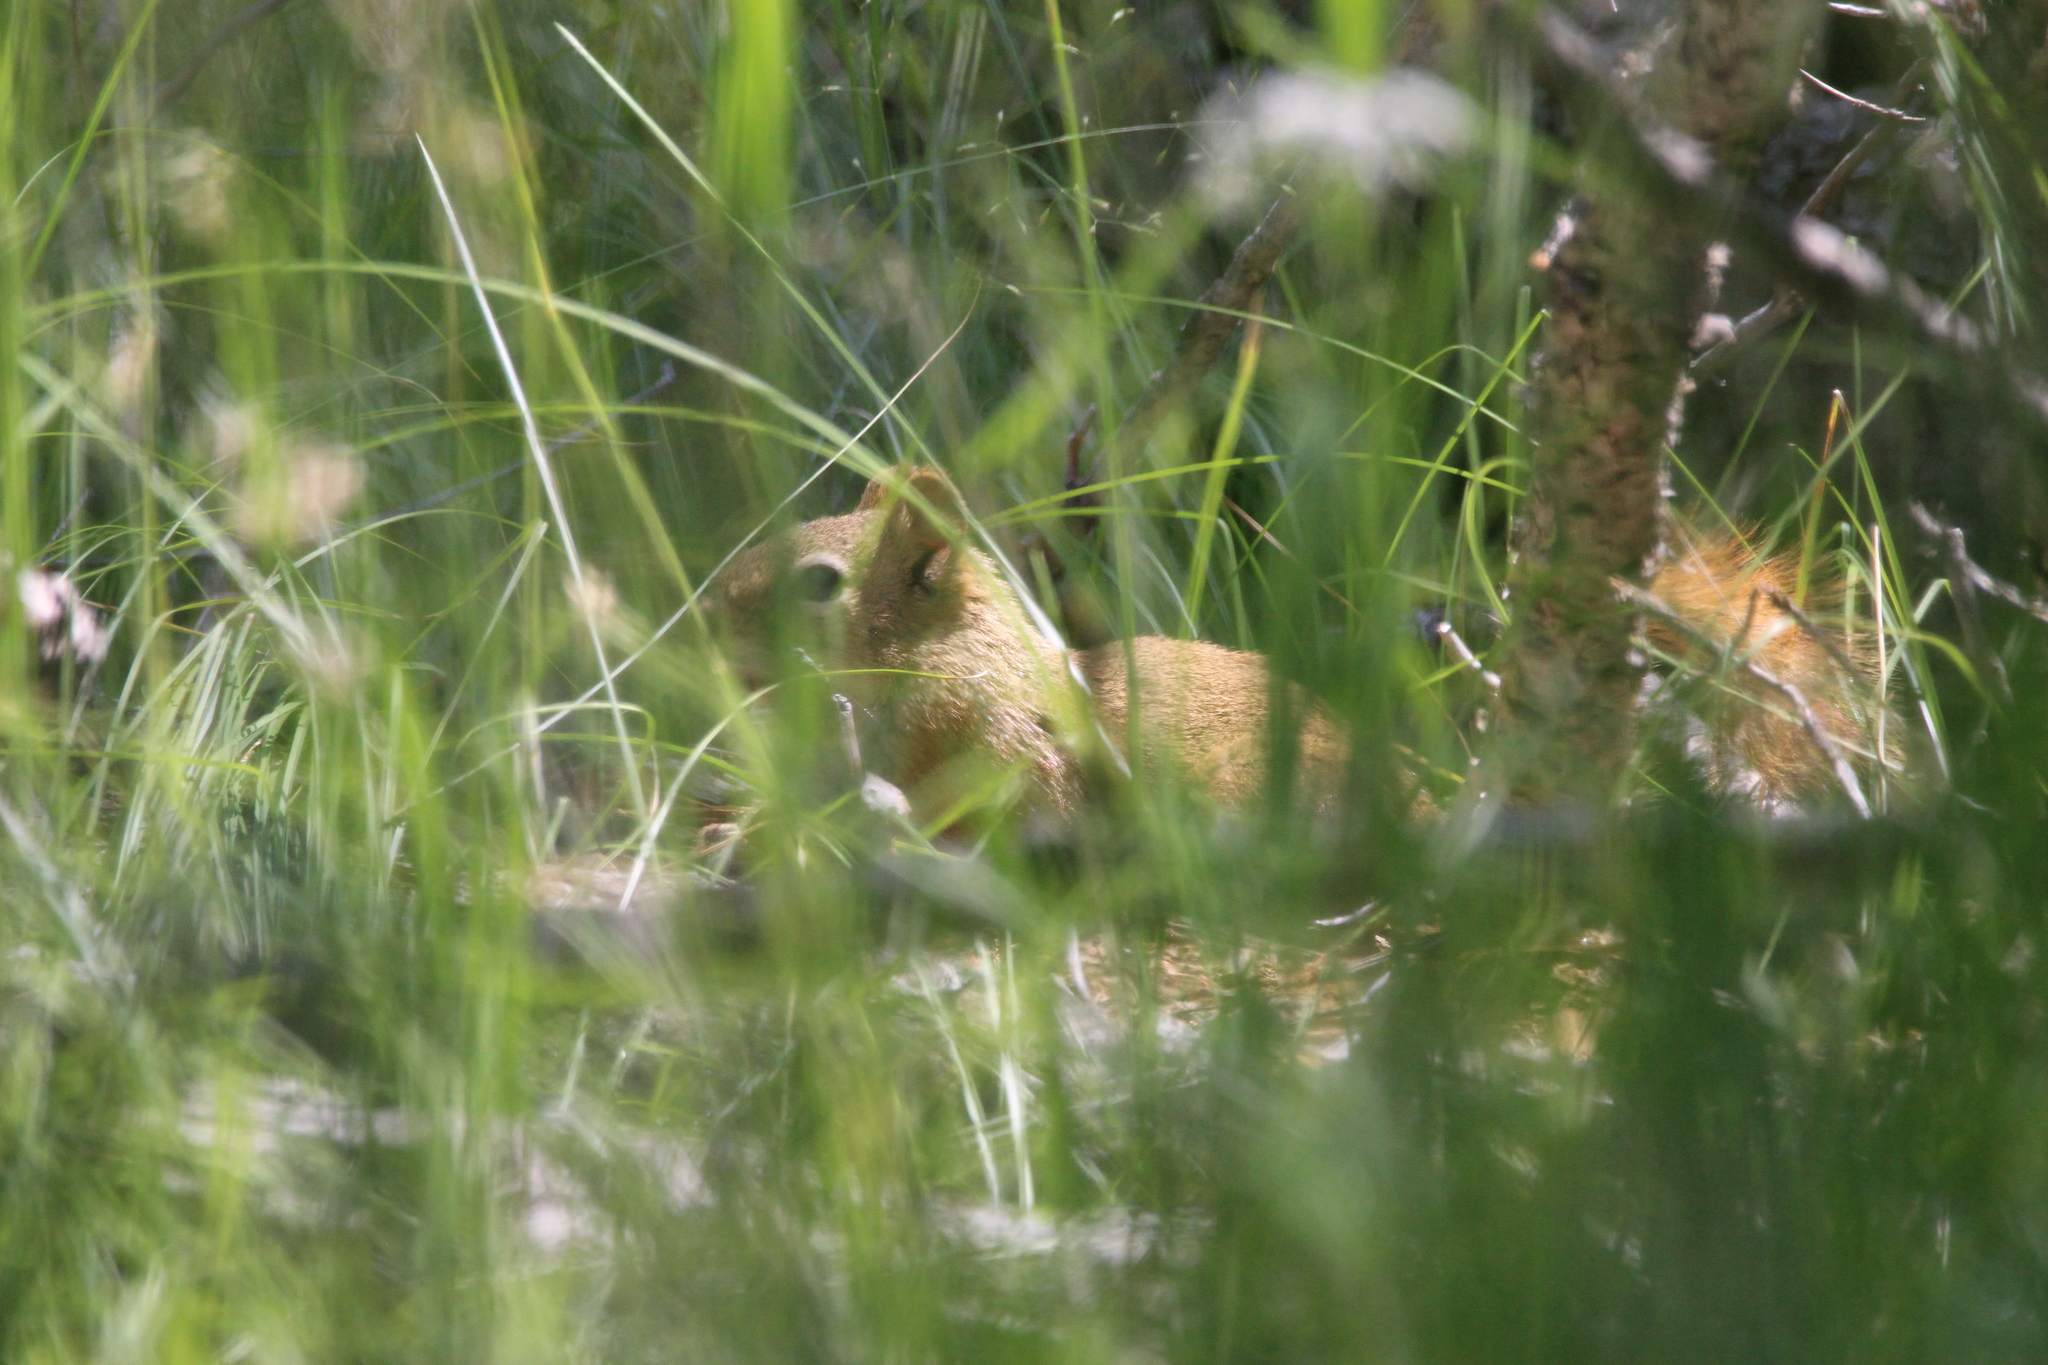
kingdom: Animalia
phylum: Chordata
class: Mammalia
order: Rodentia
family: Sciuridae
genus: Tamiasciurus
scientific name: Tamiasciurus hudsonicus
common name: Red squirrel
